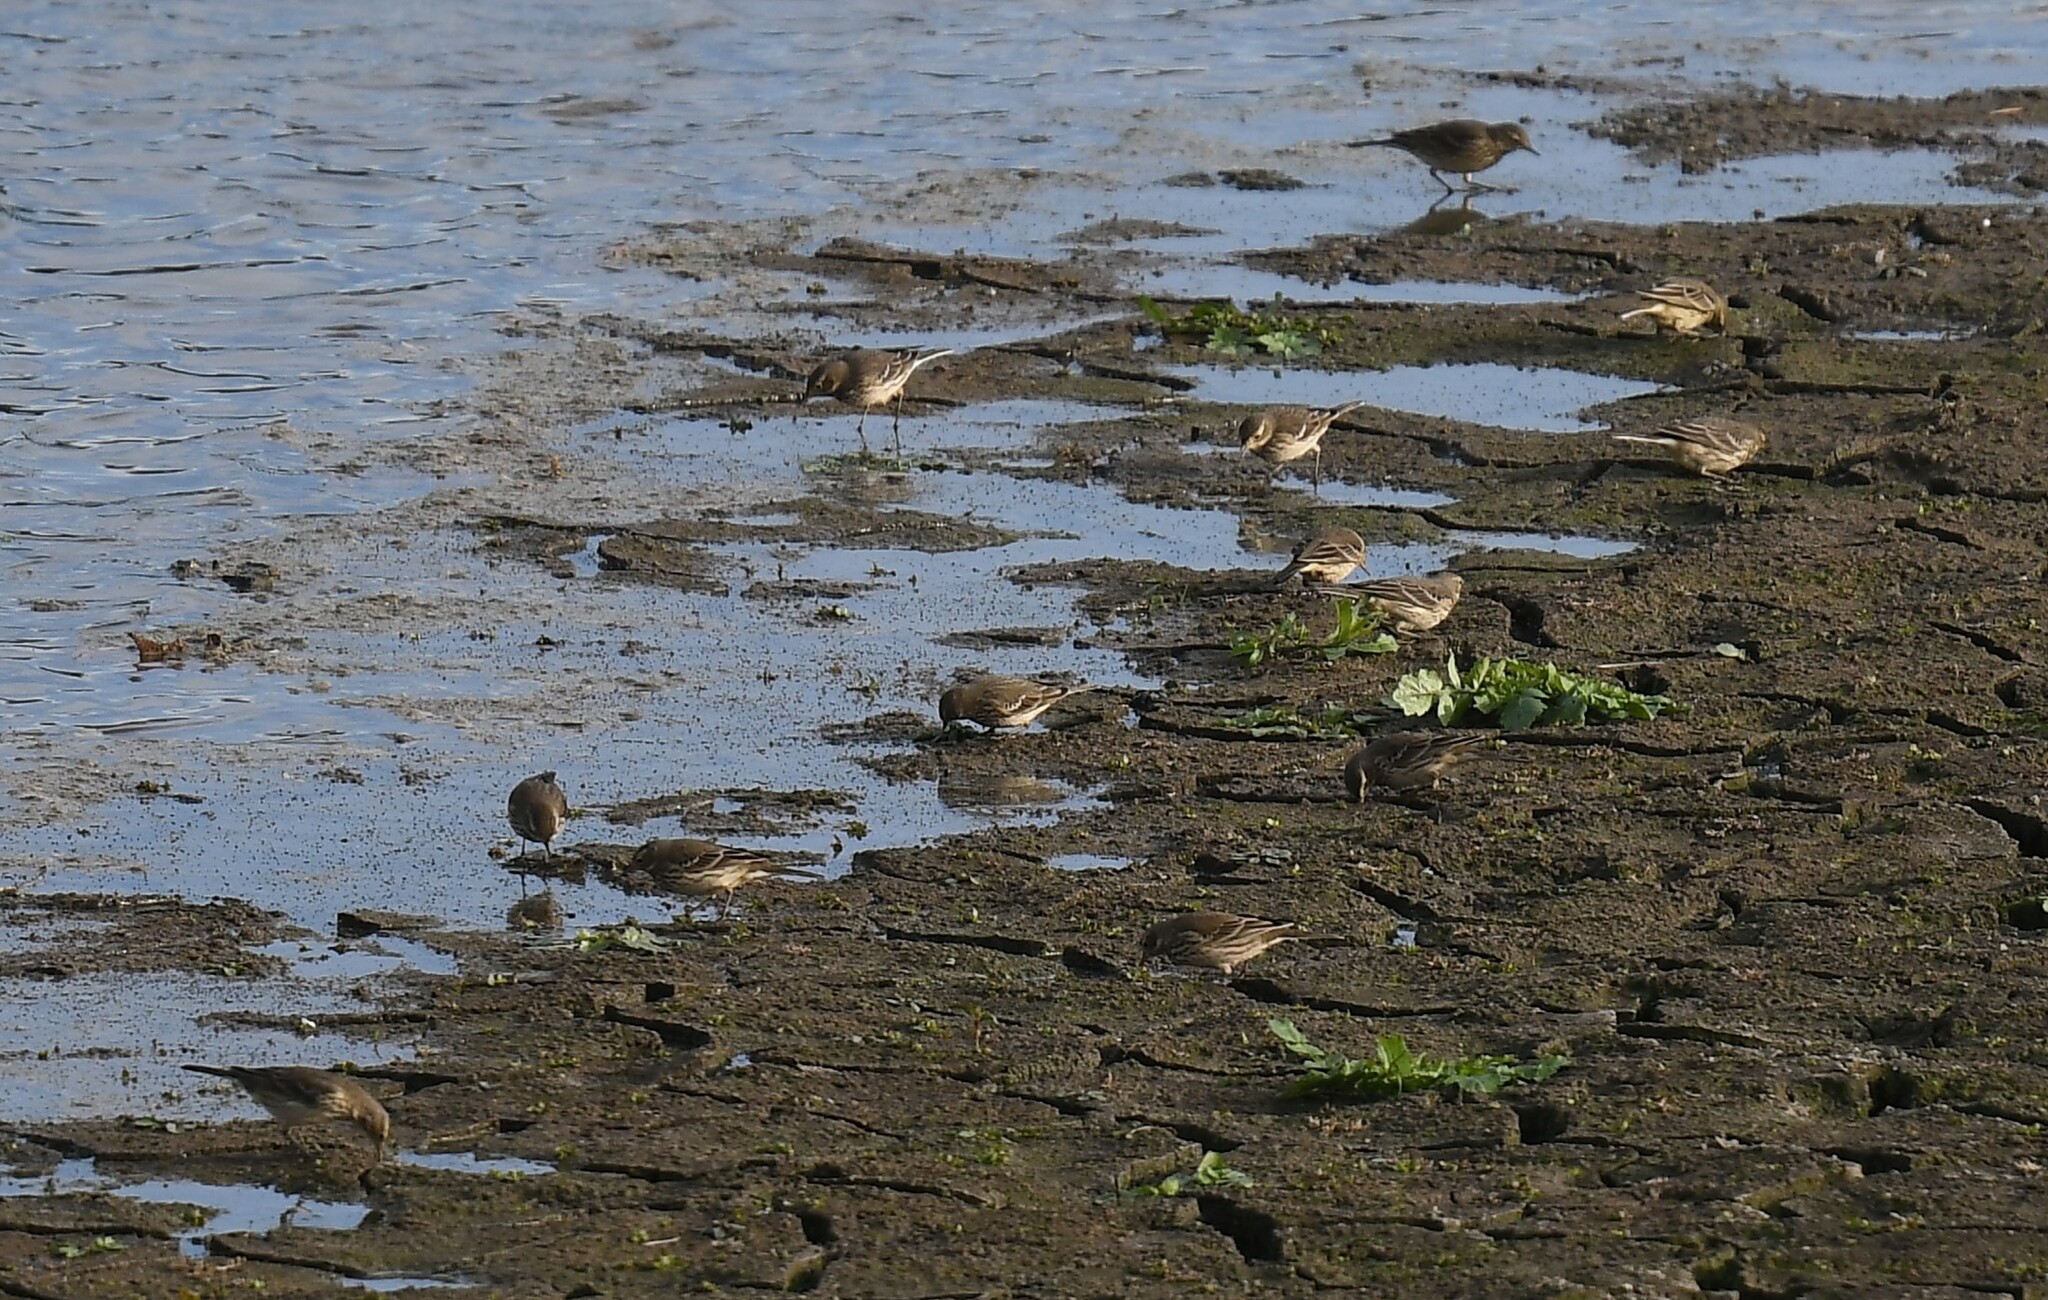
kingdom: Animalia
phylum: Chordata
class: Aves
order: Passeriformes
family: Motacillidae
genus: Anthus
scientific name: Anthus rubescens
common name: Buff-bellied pipit
